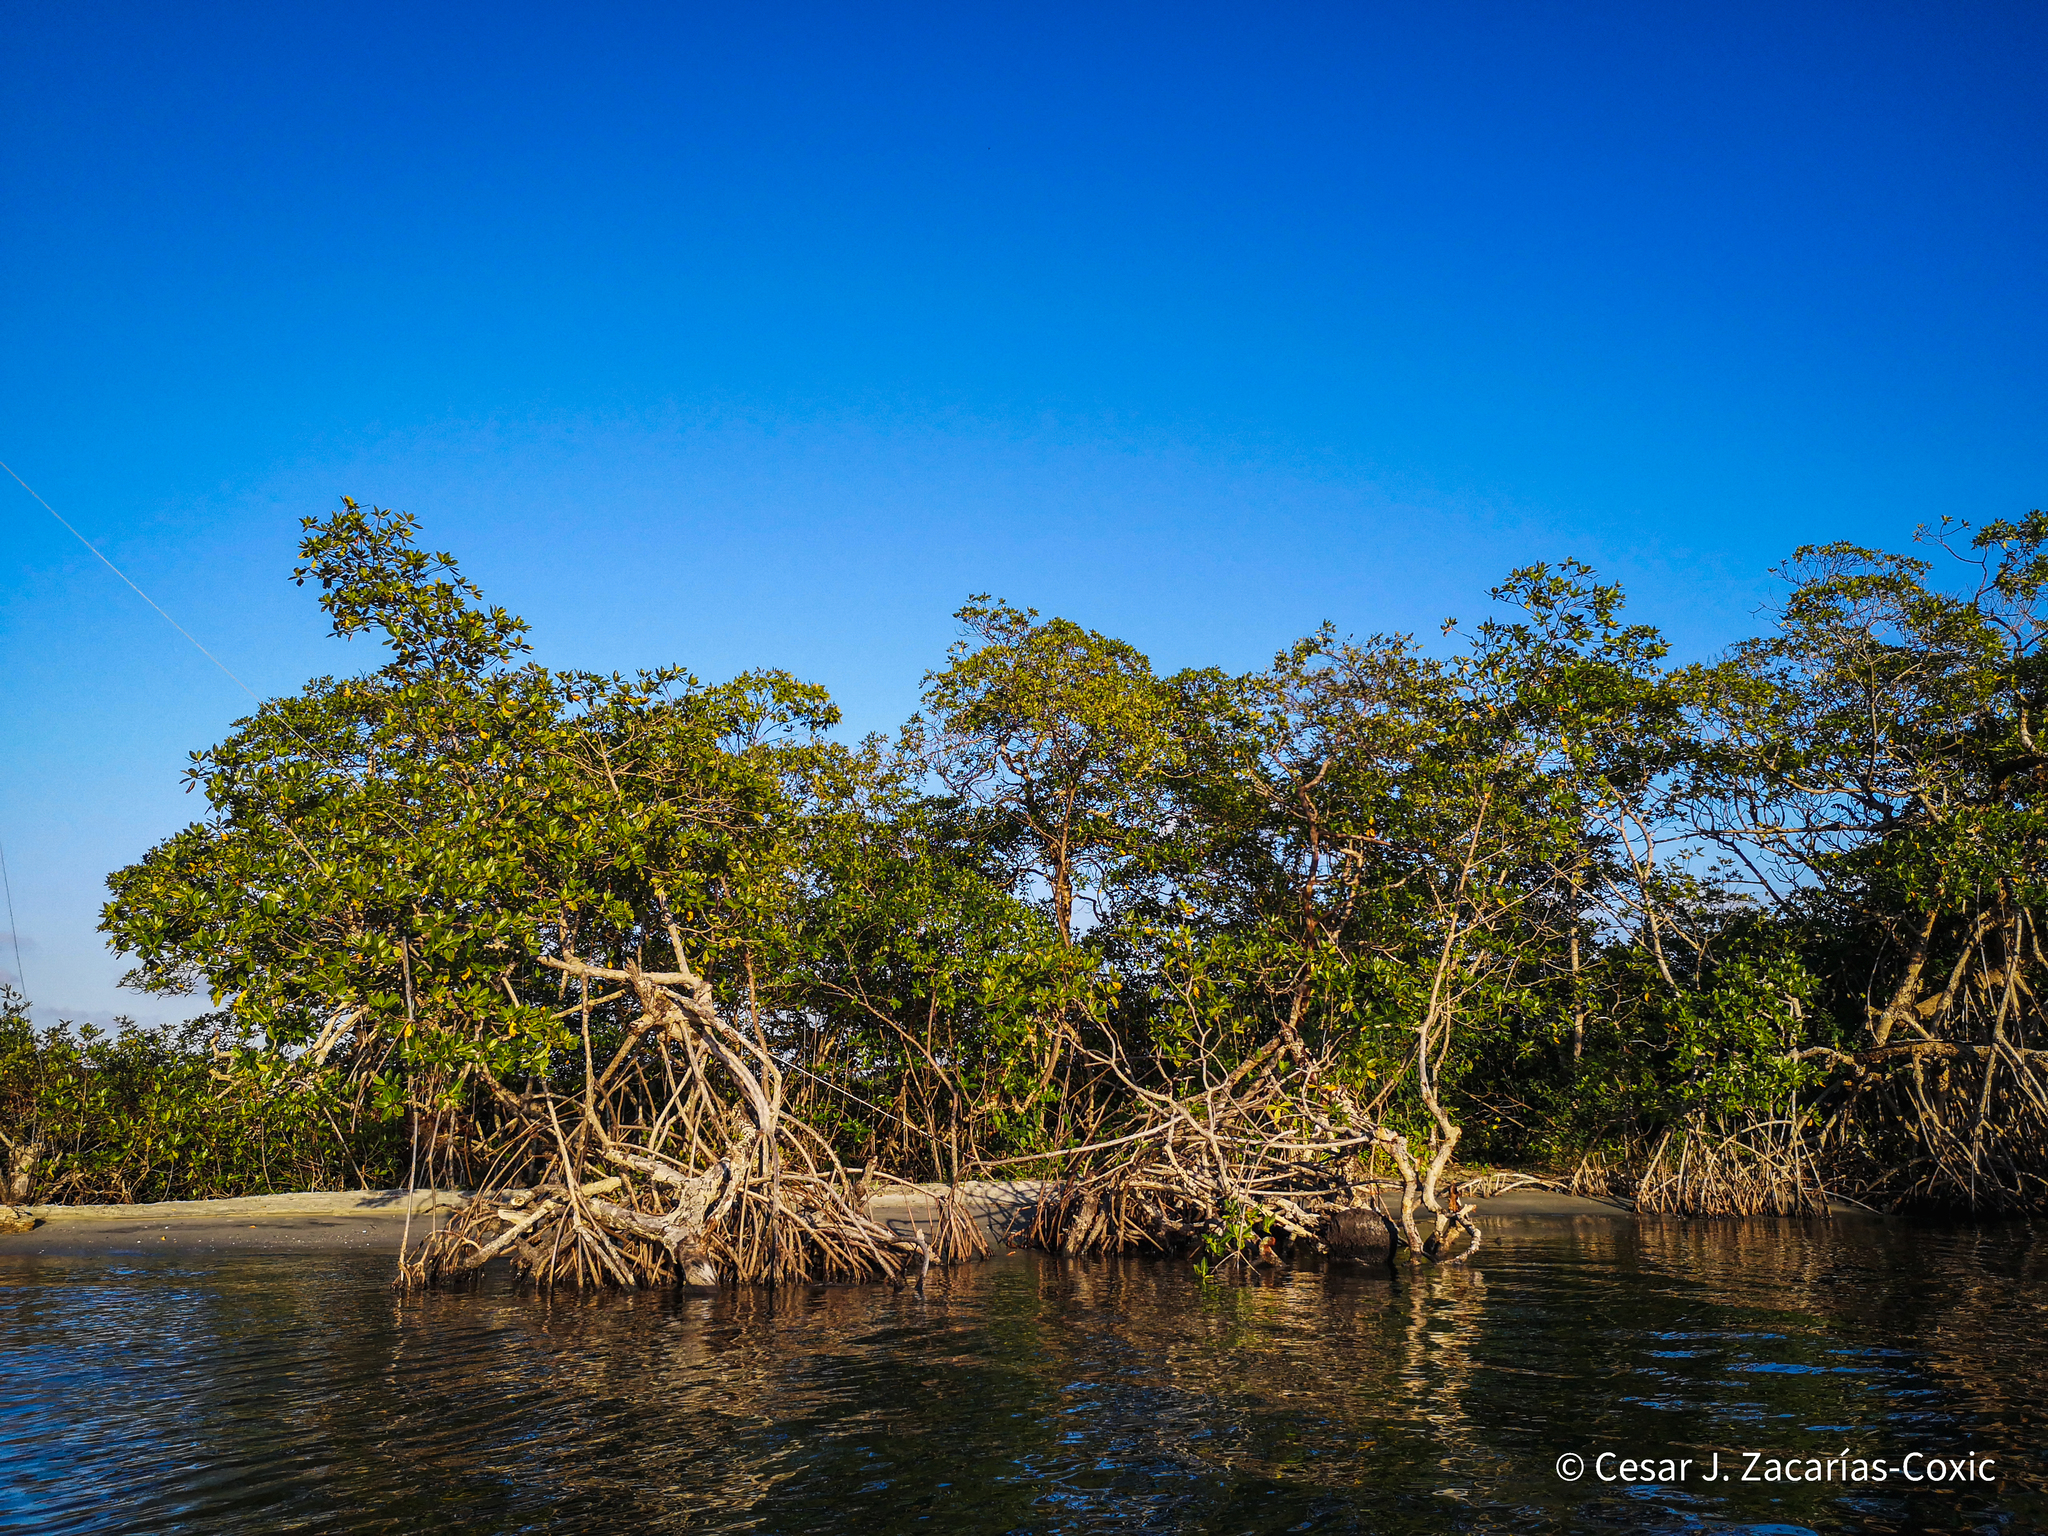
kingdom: Plantae
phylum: Tracheophyta
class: Magnoliopsida
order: Malpighiales
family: Rhizophoraceae
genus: Rhizophora
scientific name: Rhizophora mangle
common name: Red mangrove
